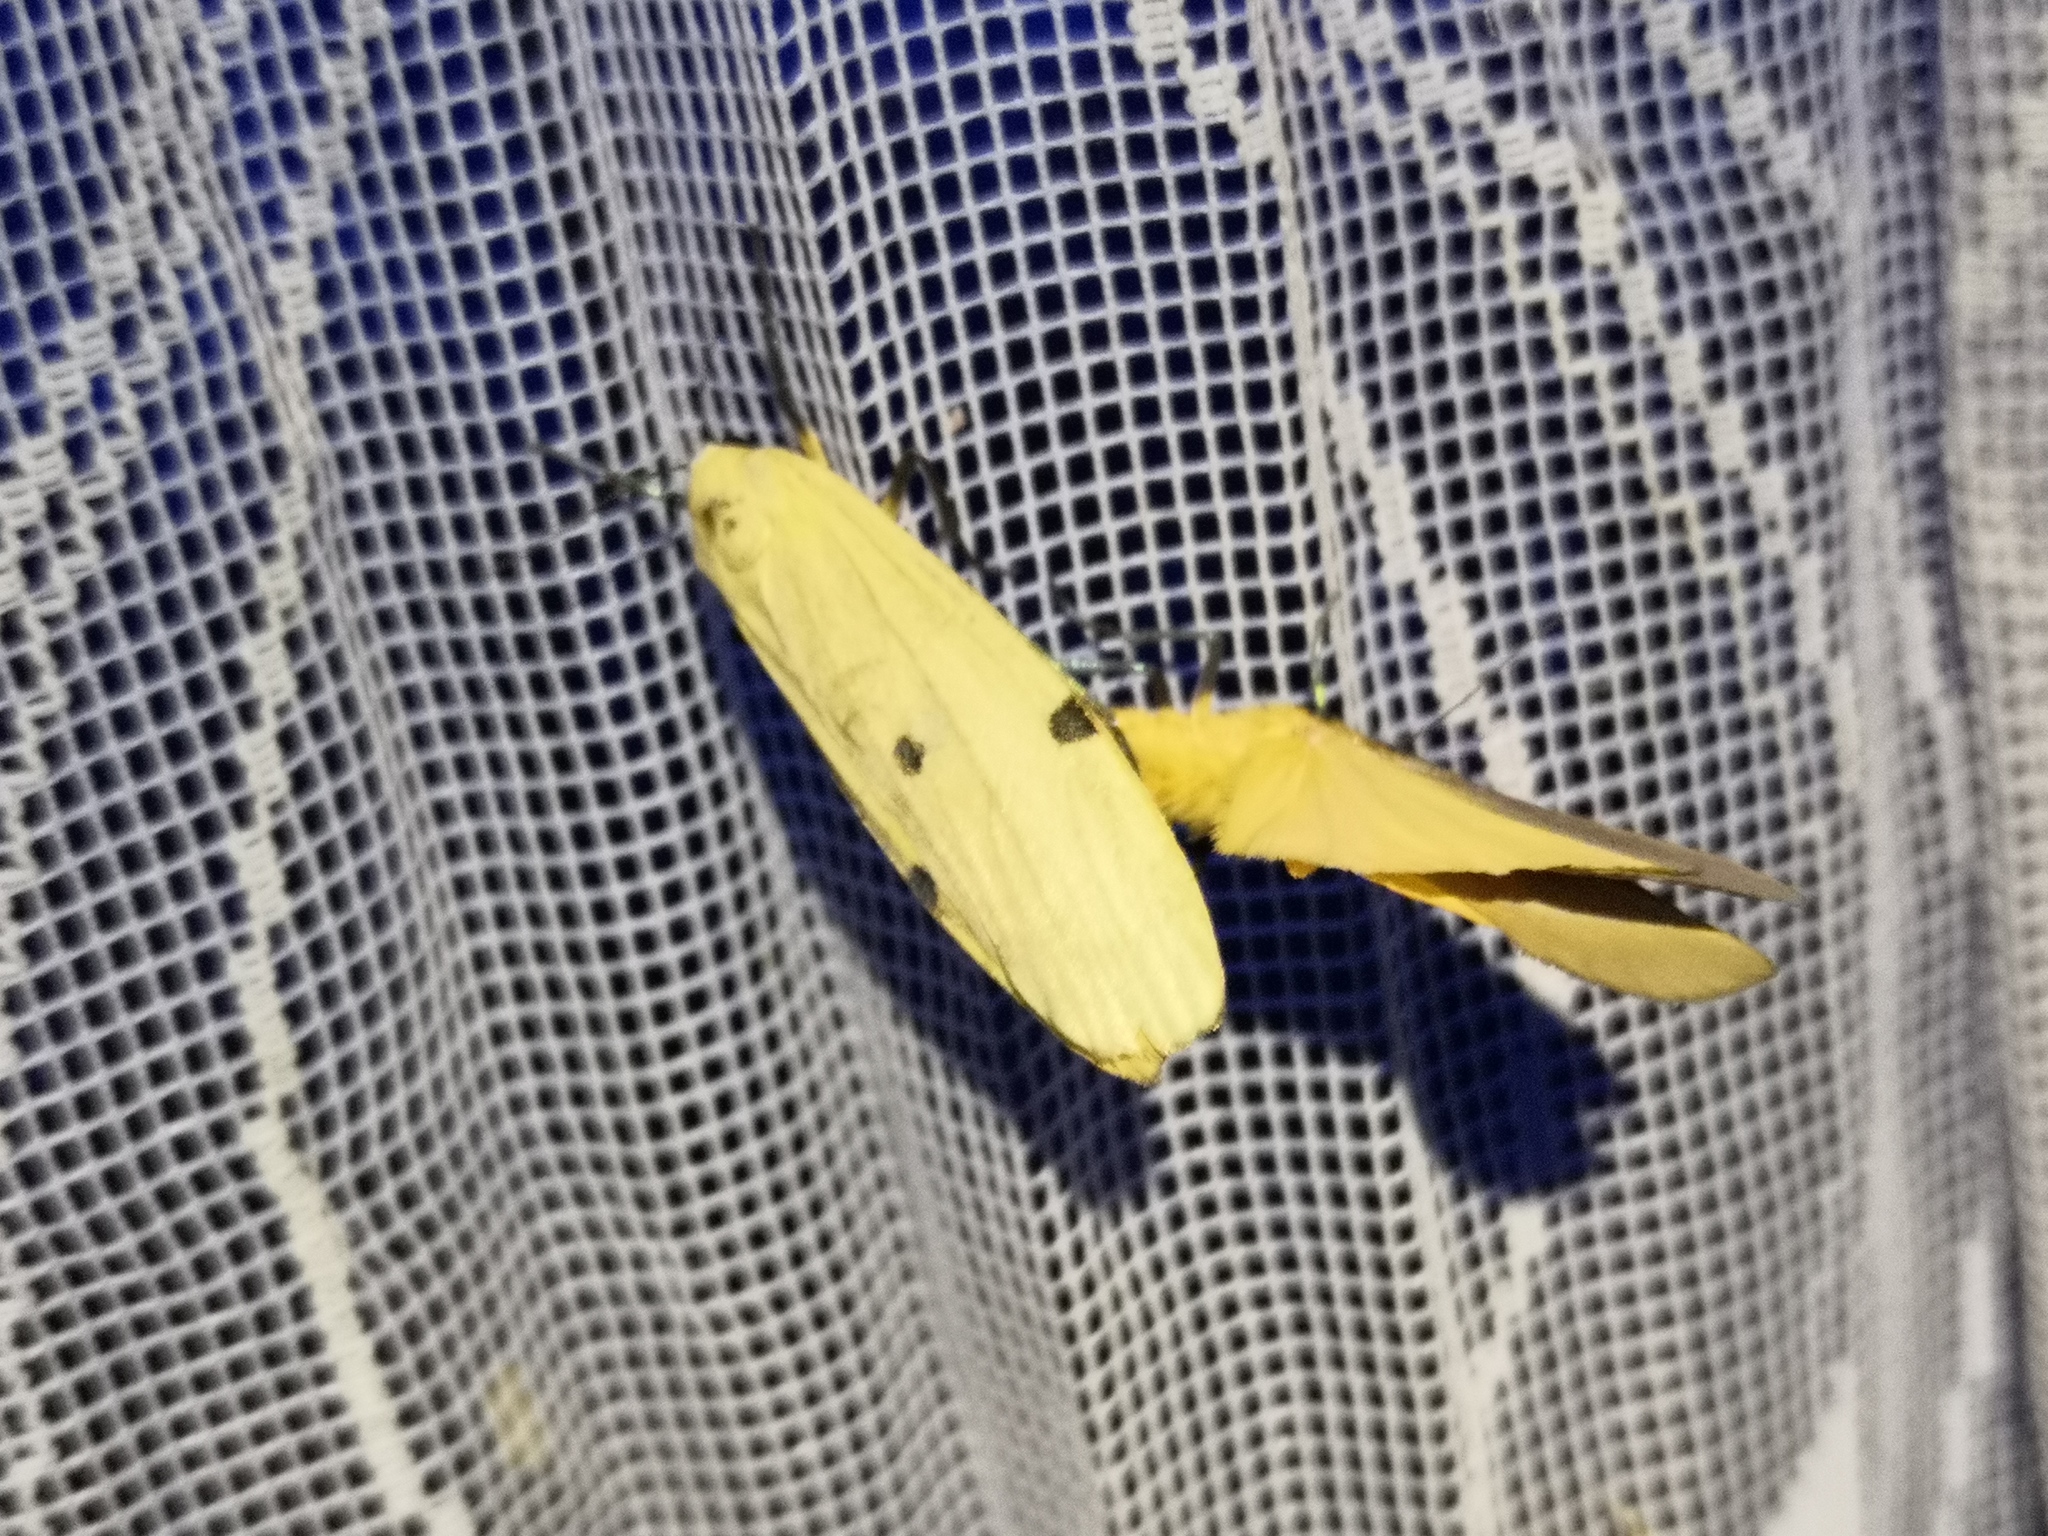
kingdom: Animalia
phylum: Arthropoda
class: Insecta
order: Lepidoptera
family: Erebidae
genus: Lithosia
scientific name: Lithosia quadra
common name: Four-spotted footman
